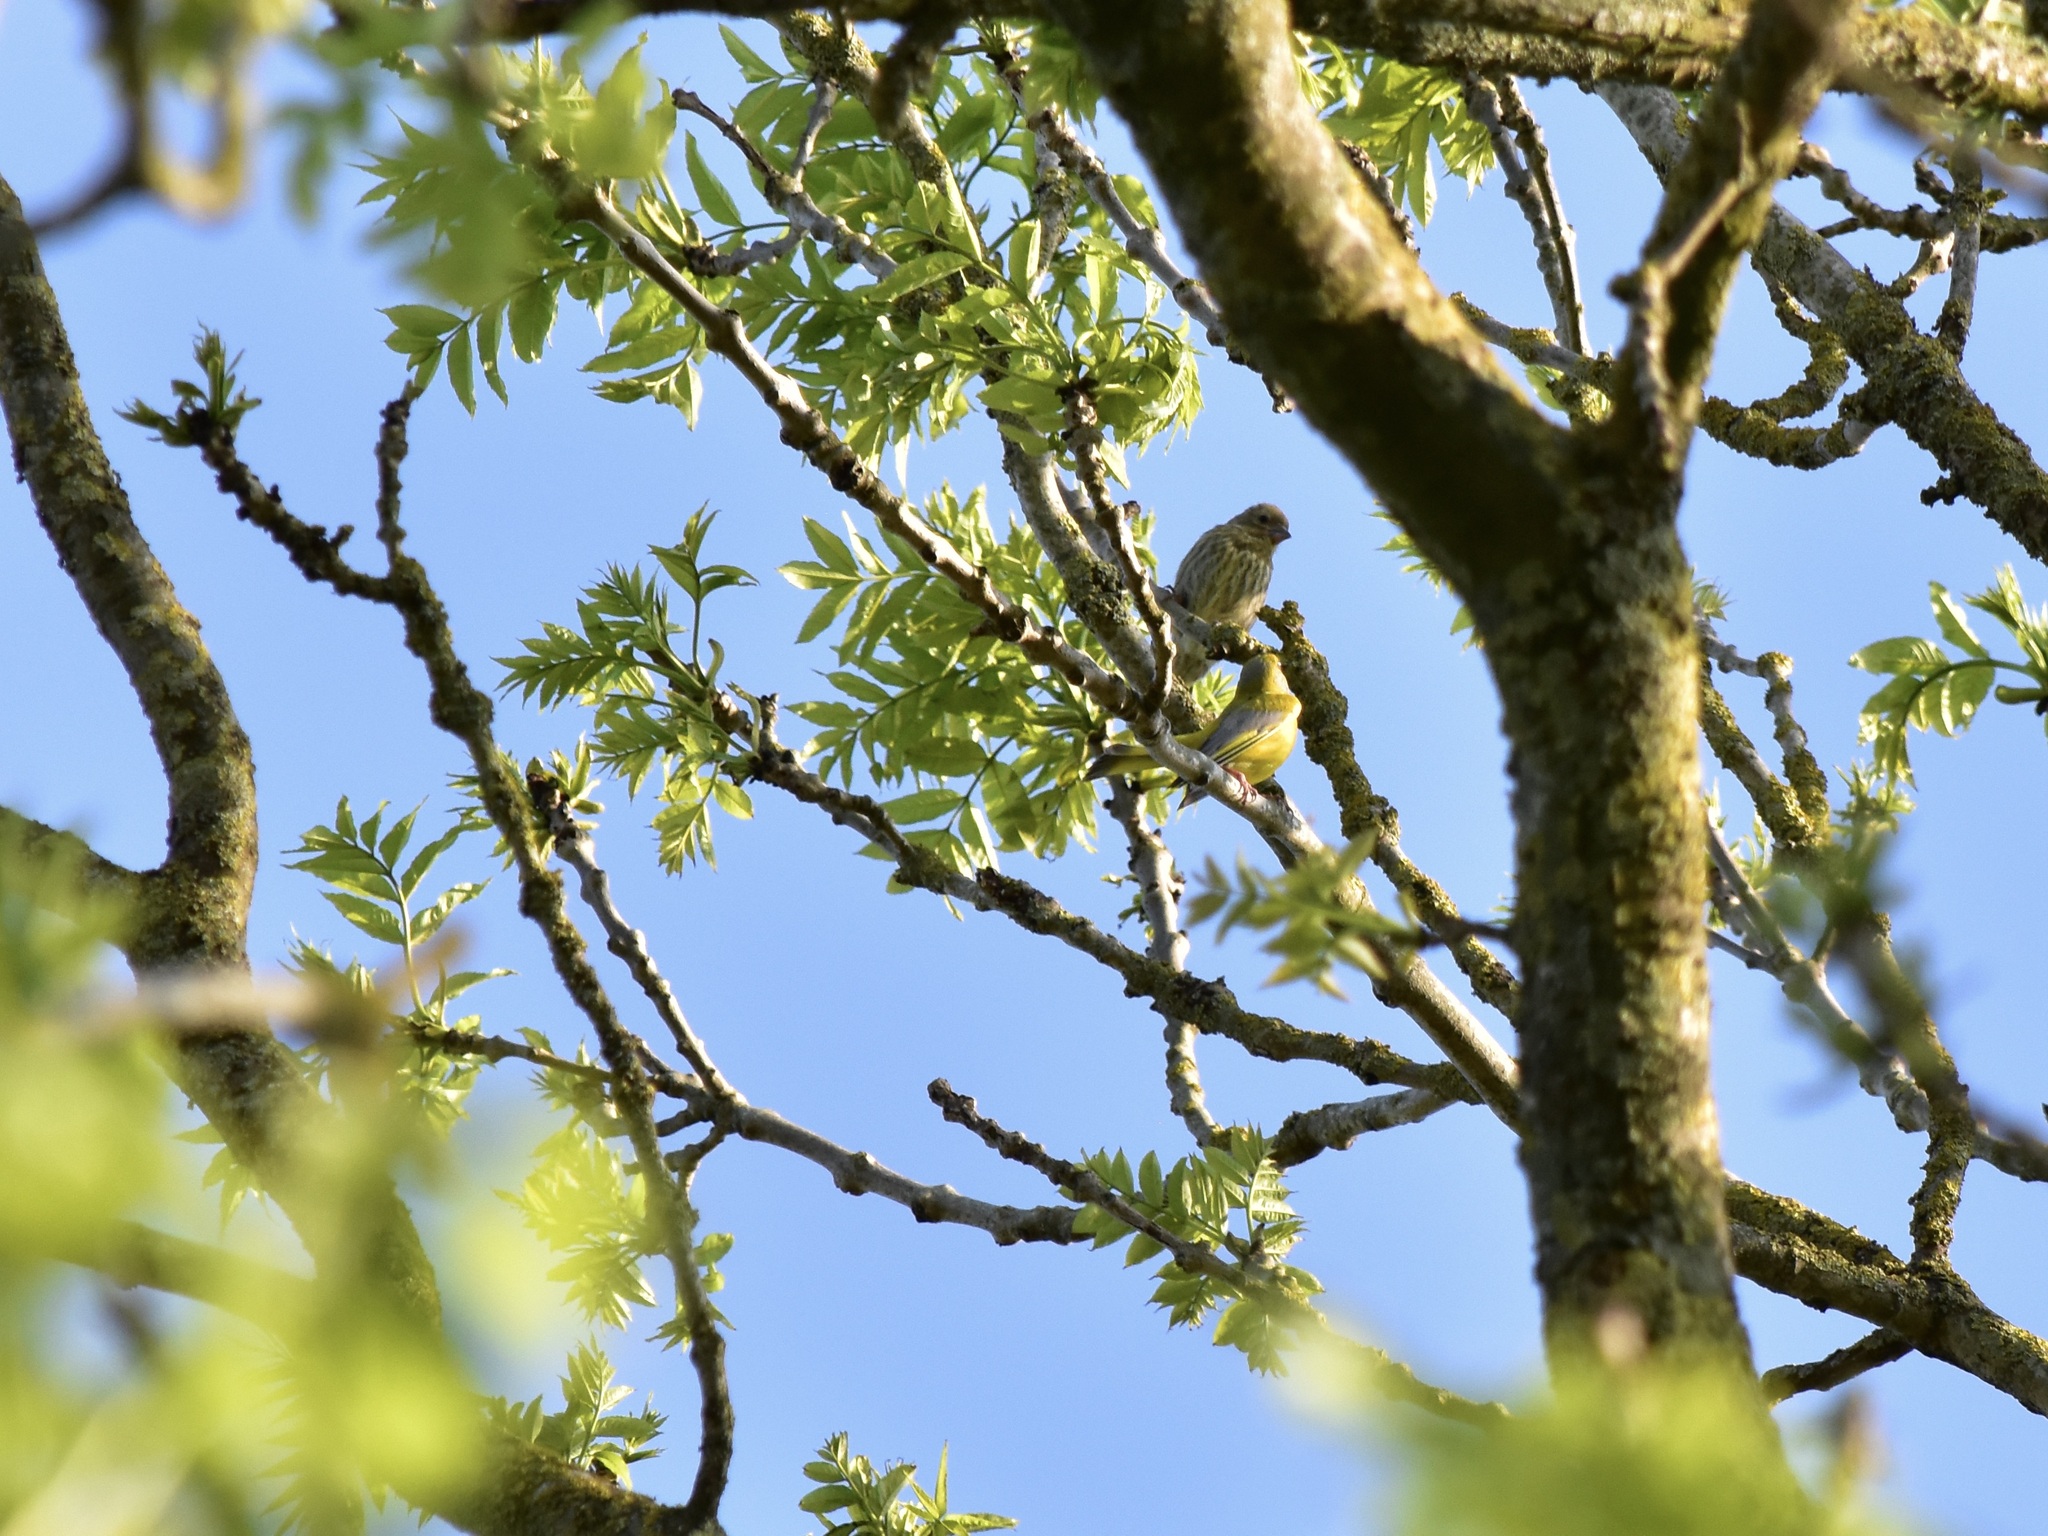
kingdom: Plantae
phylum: Tracheophyta
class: Liliopsida
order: Poales
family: Poaceae
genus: Chloris
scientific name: Chloris chloris
